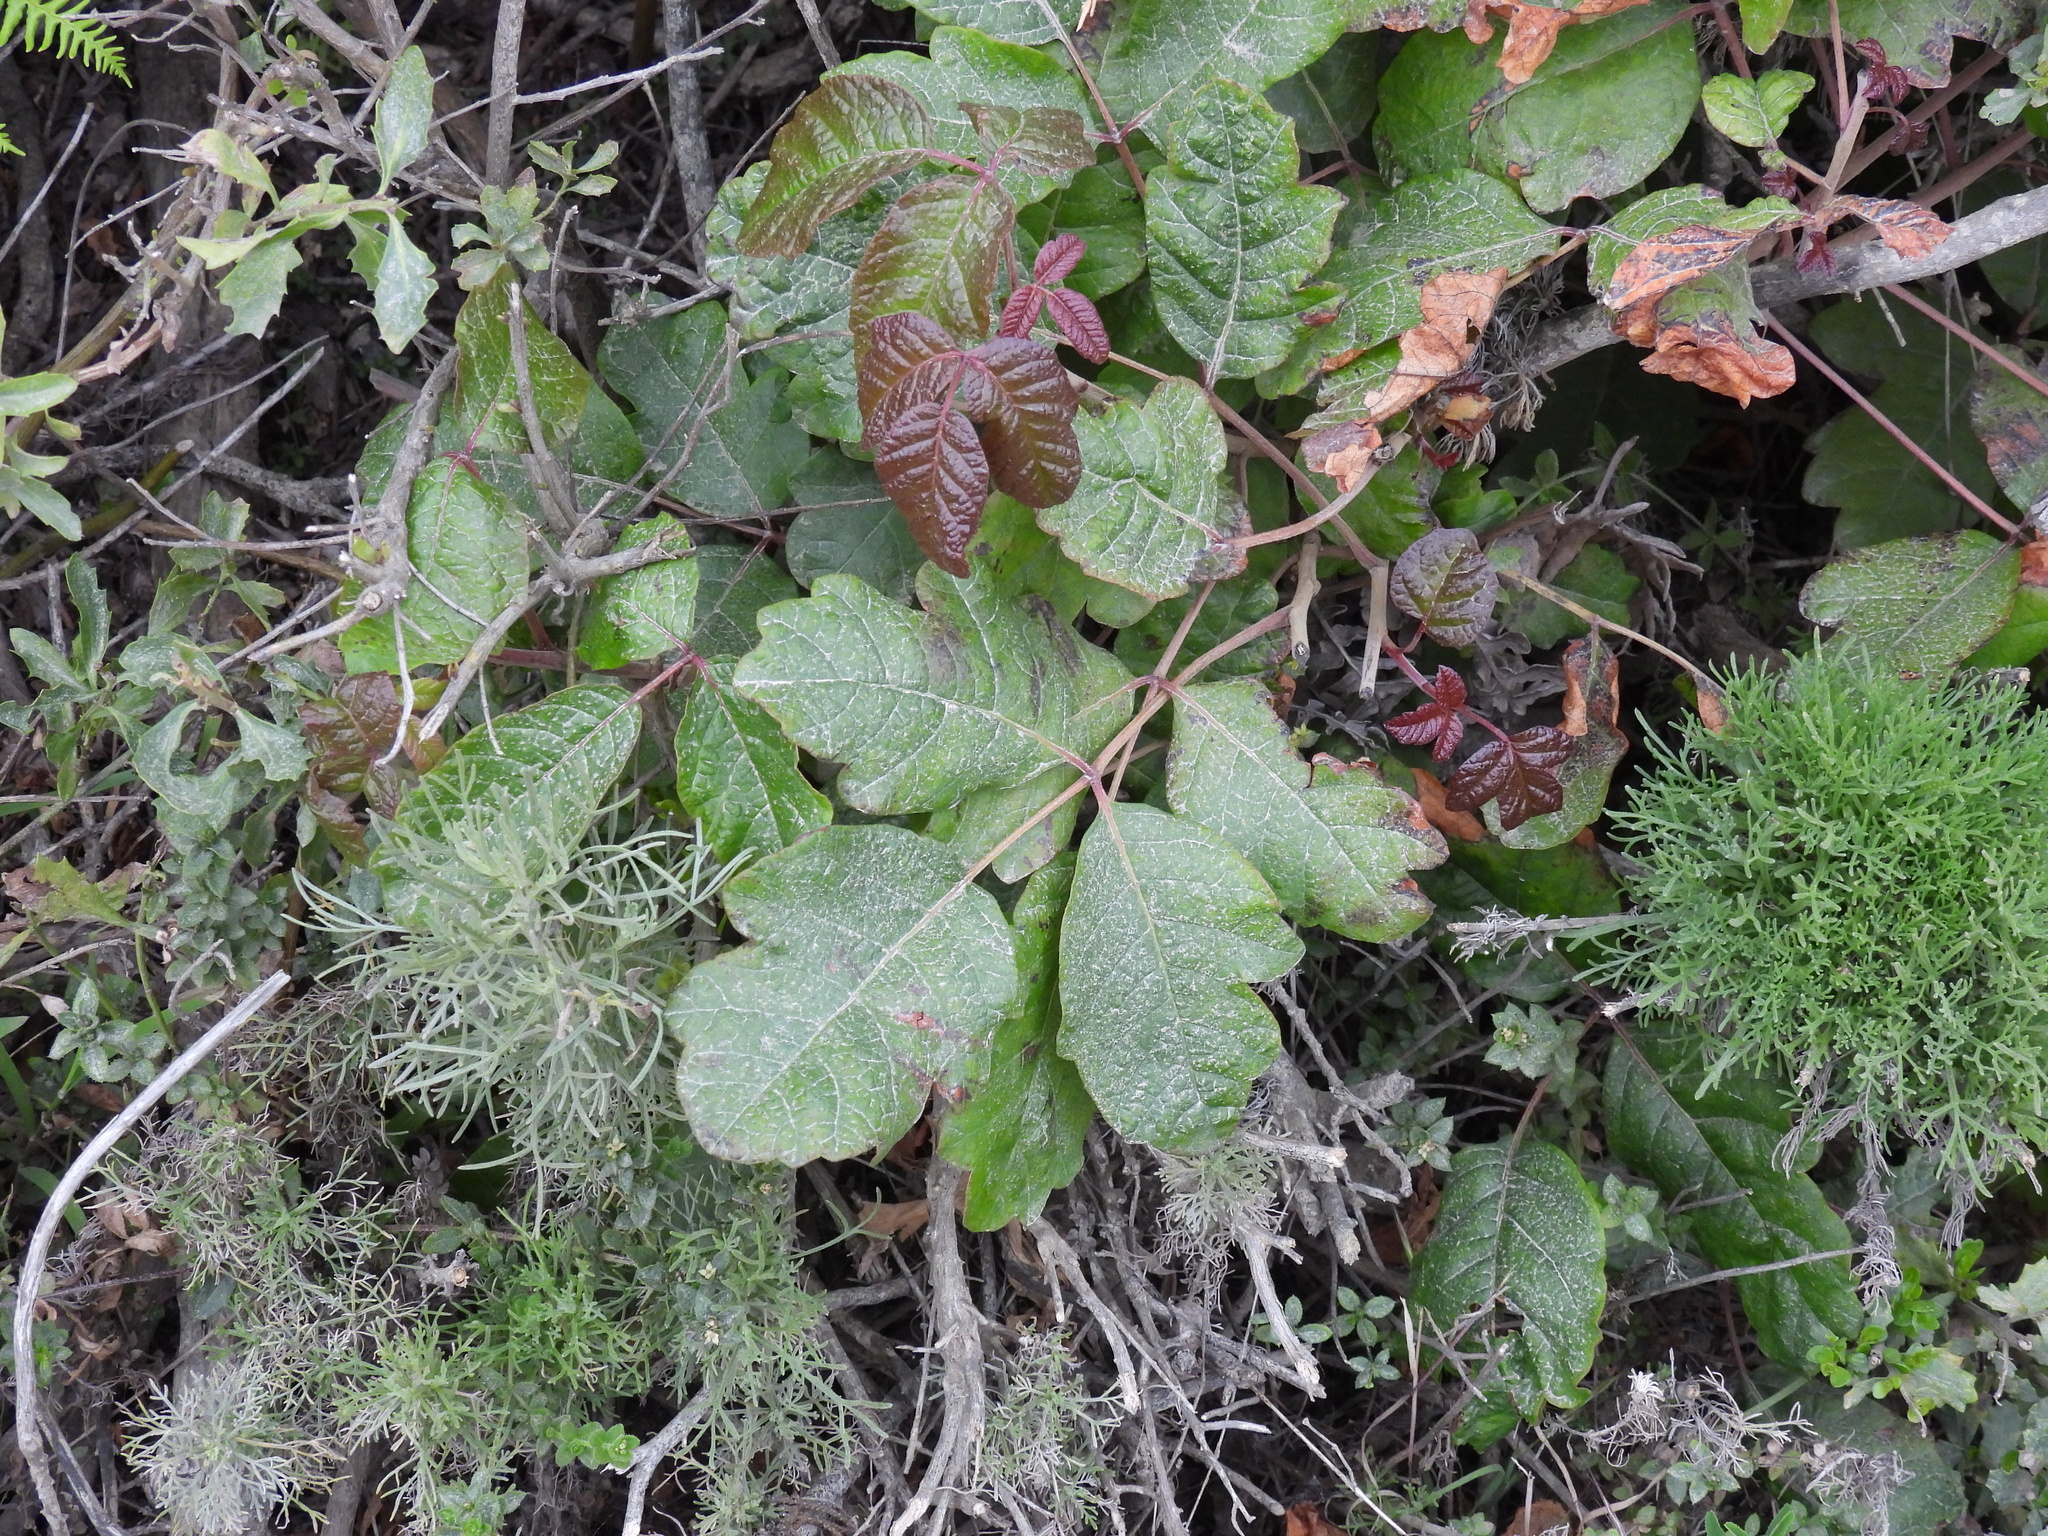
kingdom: Plantae
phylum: Tracheophyta
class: Magnoliopsida
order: Sapindales
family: Anacardiaceae
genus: Toxicodendron
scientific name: Toxicodendron diversilobum
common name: Pacific poison-oak
